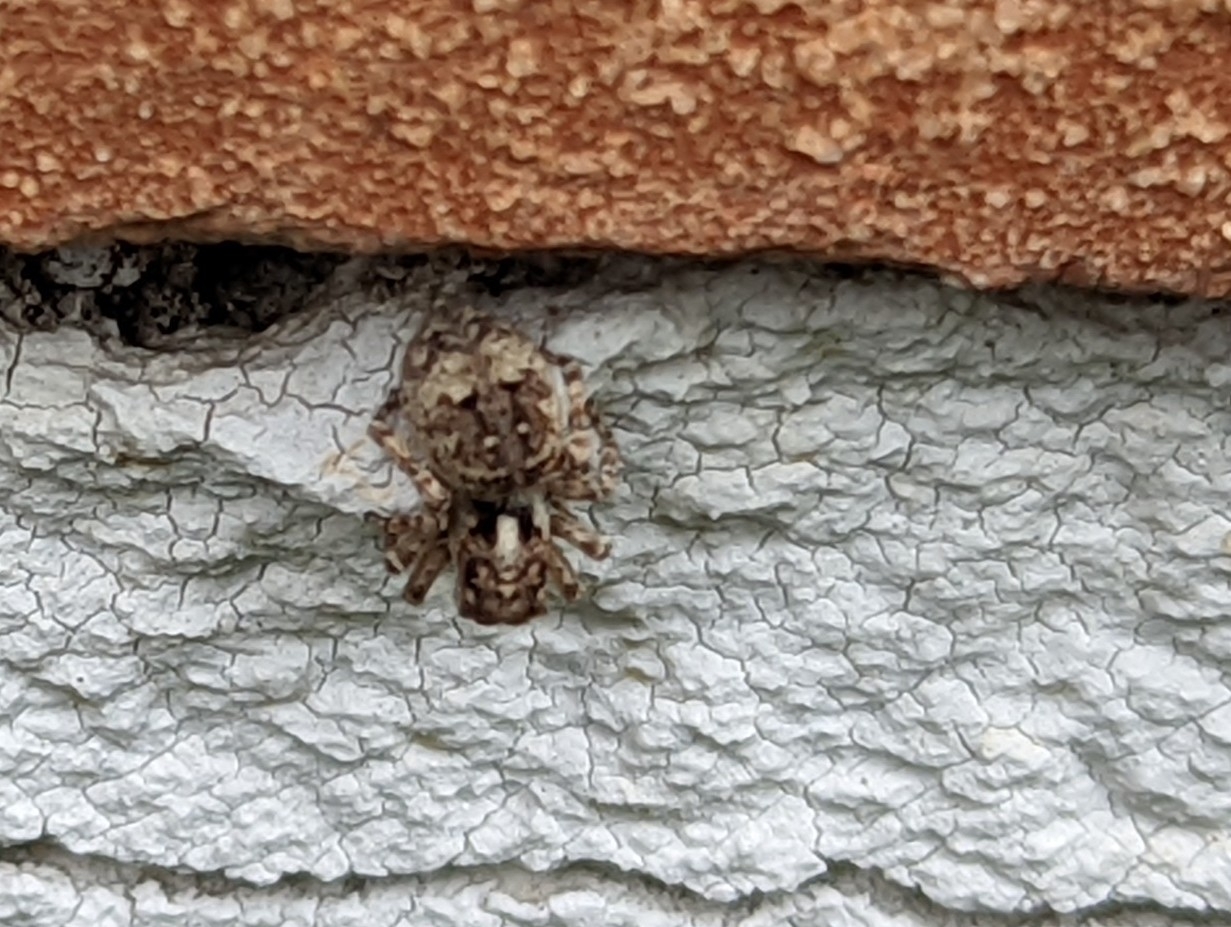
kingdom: Animalia
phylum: Arthropoda
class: Arachnida
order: Araneae
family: Salticidae
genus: Attulus
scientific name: Attulus fasciger
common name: Asiatic wall jumping spider
